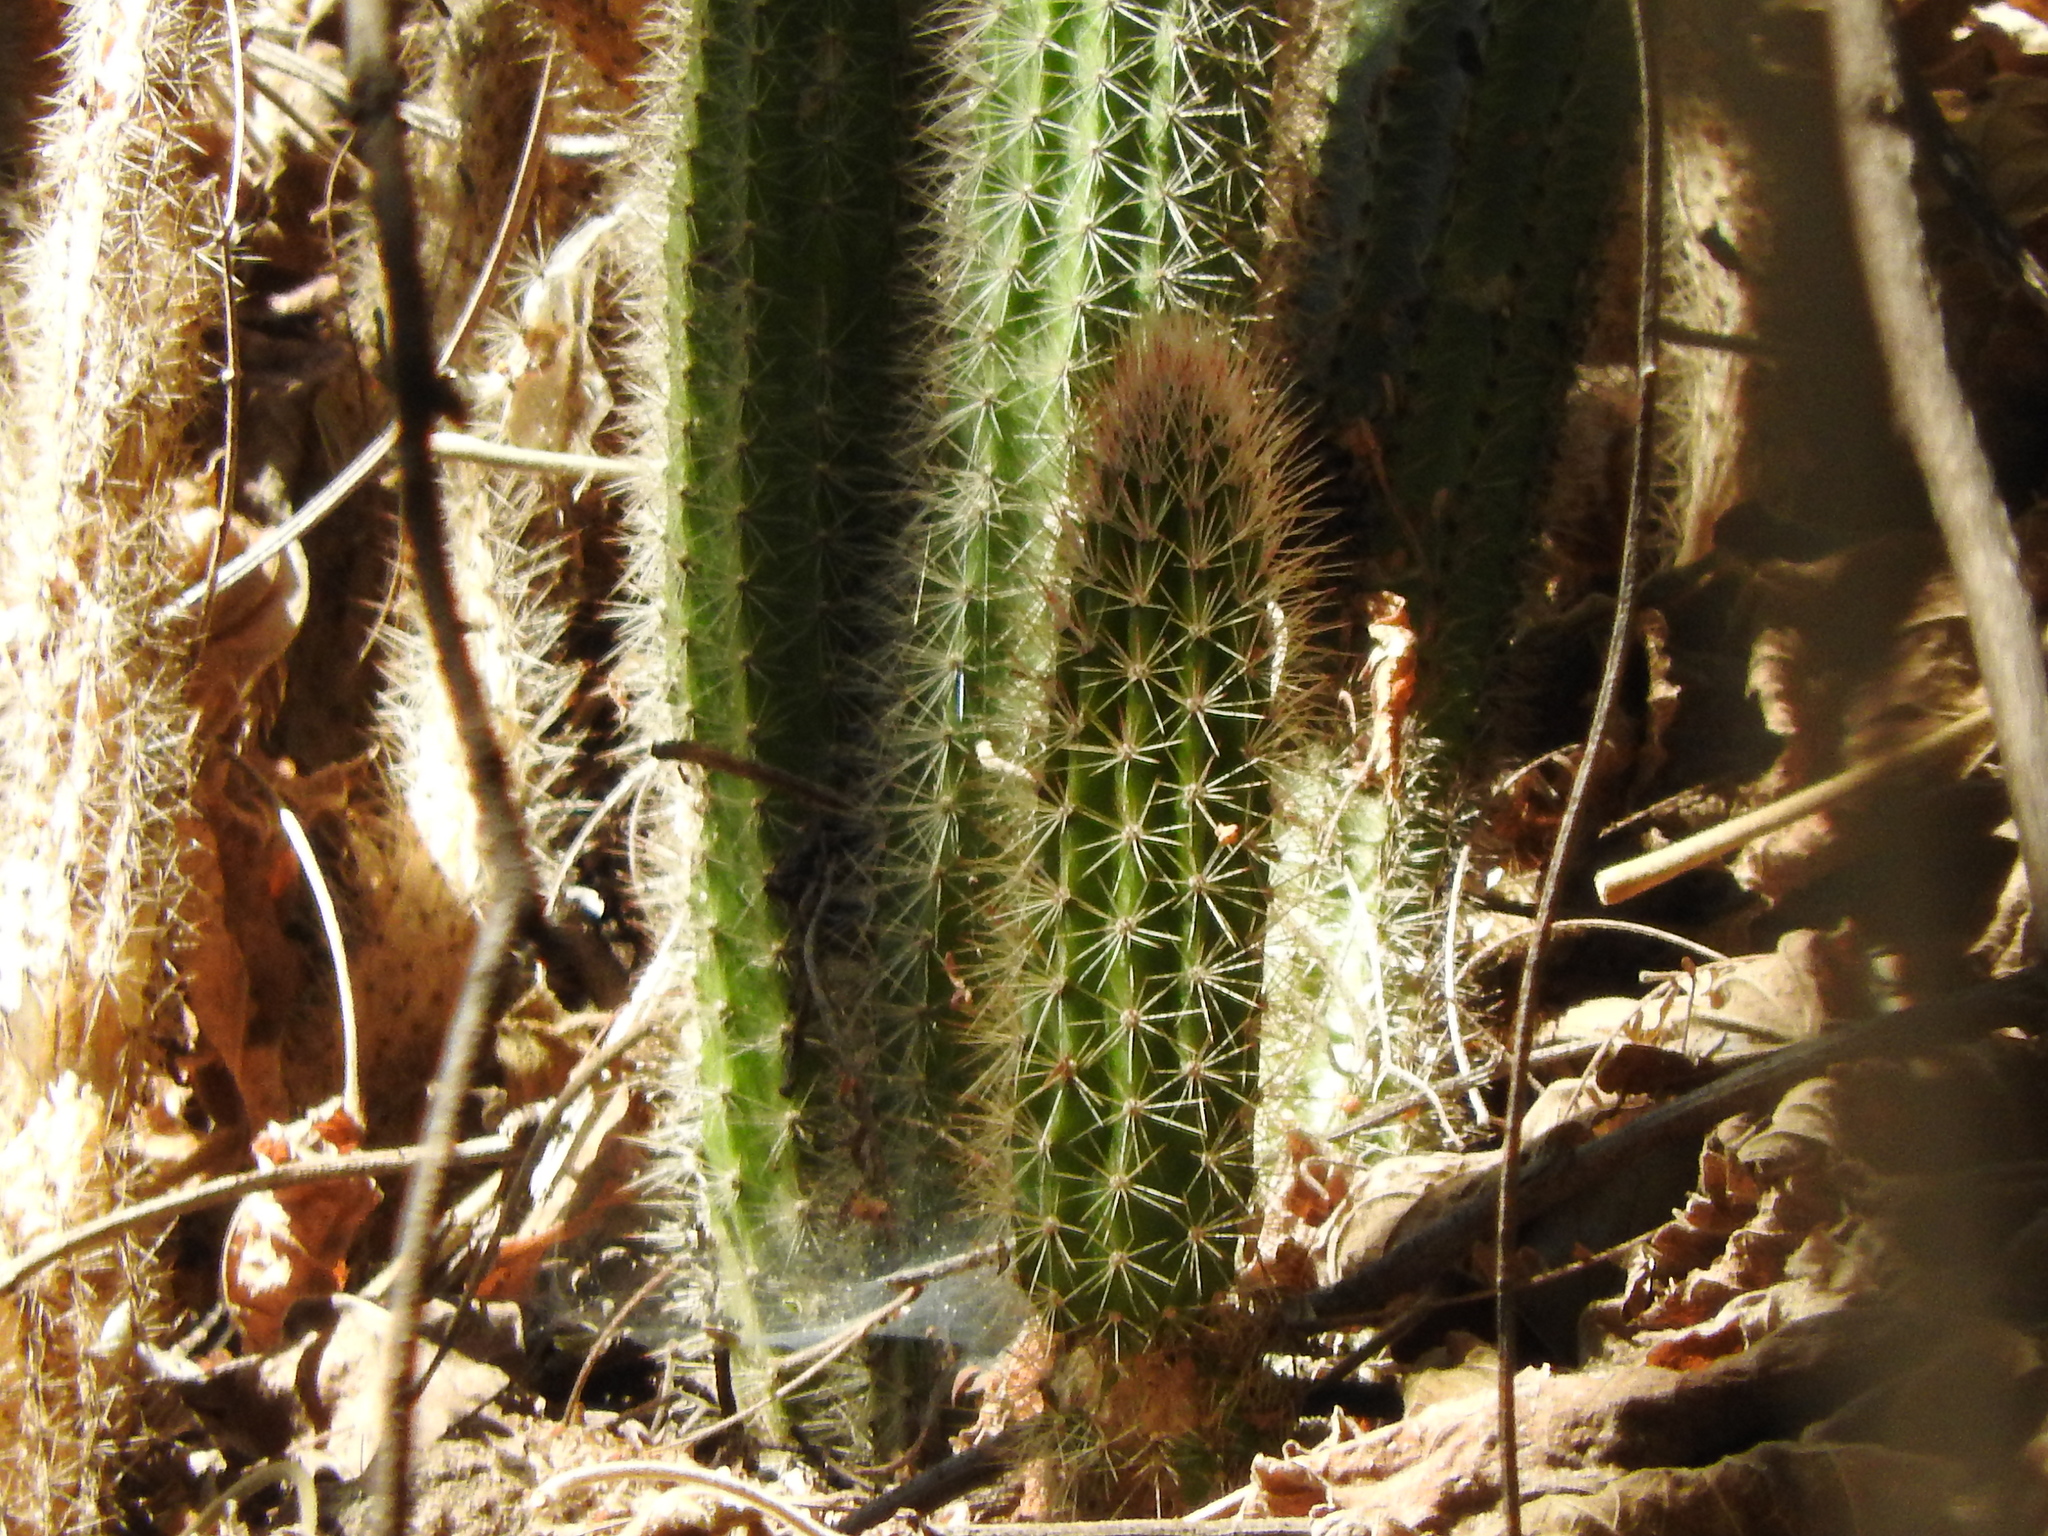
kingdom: Plantae
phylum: Tracheophyta
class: Magnoliopsida
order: Caryophyllales
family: Cactaceae
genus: Peniocereus
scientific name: Peniocereus serpentinus
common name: Serpent cactus
